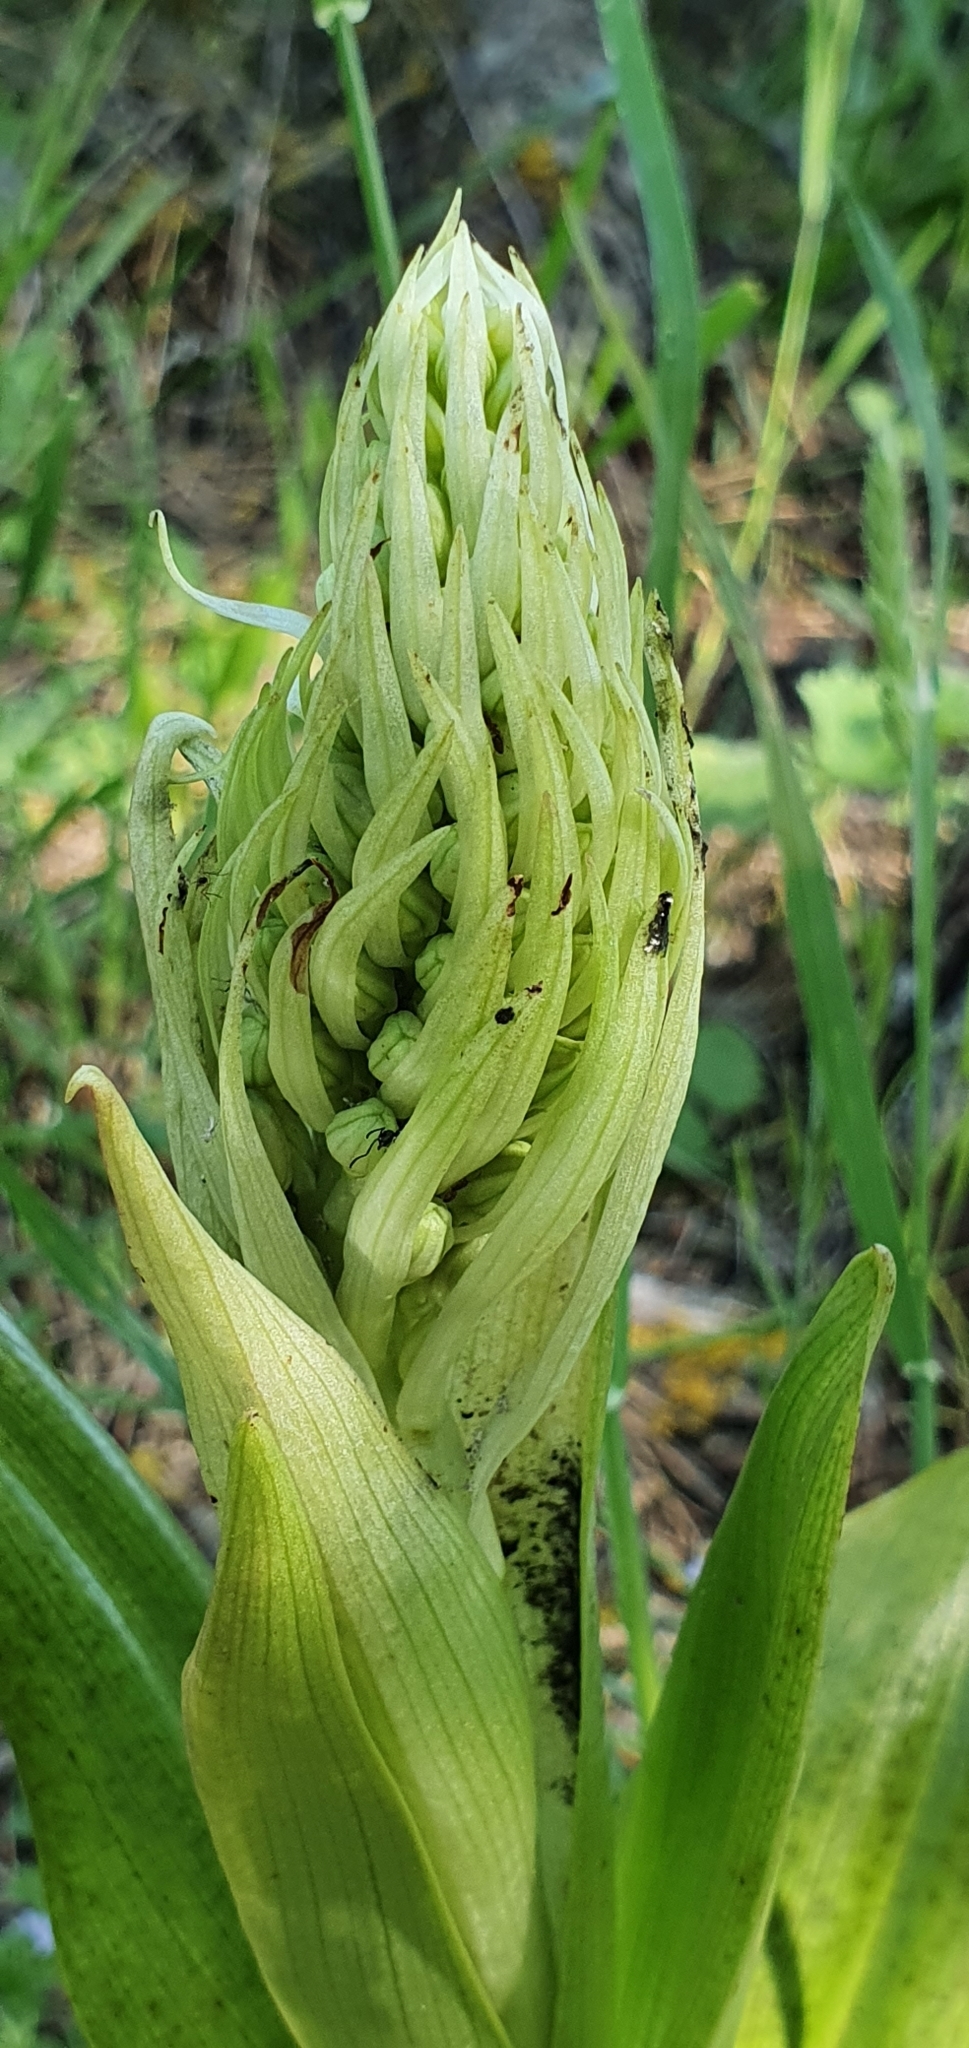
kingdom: Plantae
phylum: Tracheophyta
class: Liliopsida
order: Asparagales
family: Orchidaceae
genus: Himantoglossum
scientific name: Himantoglossum hircinum
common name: Lizard orchid
